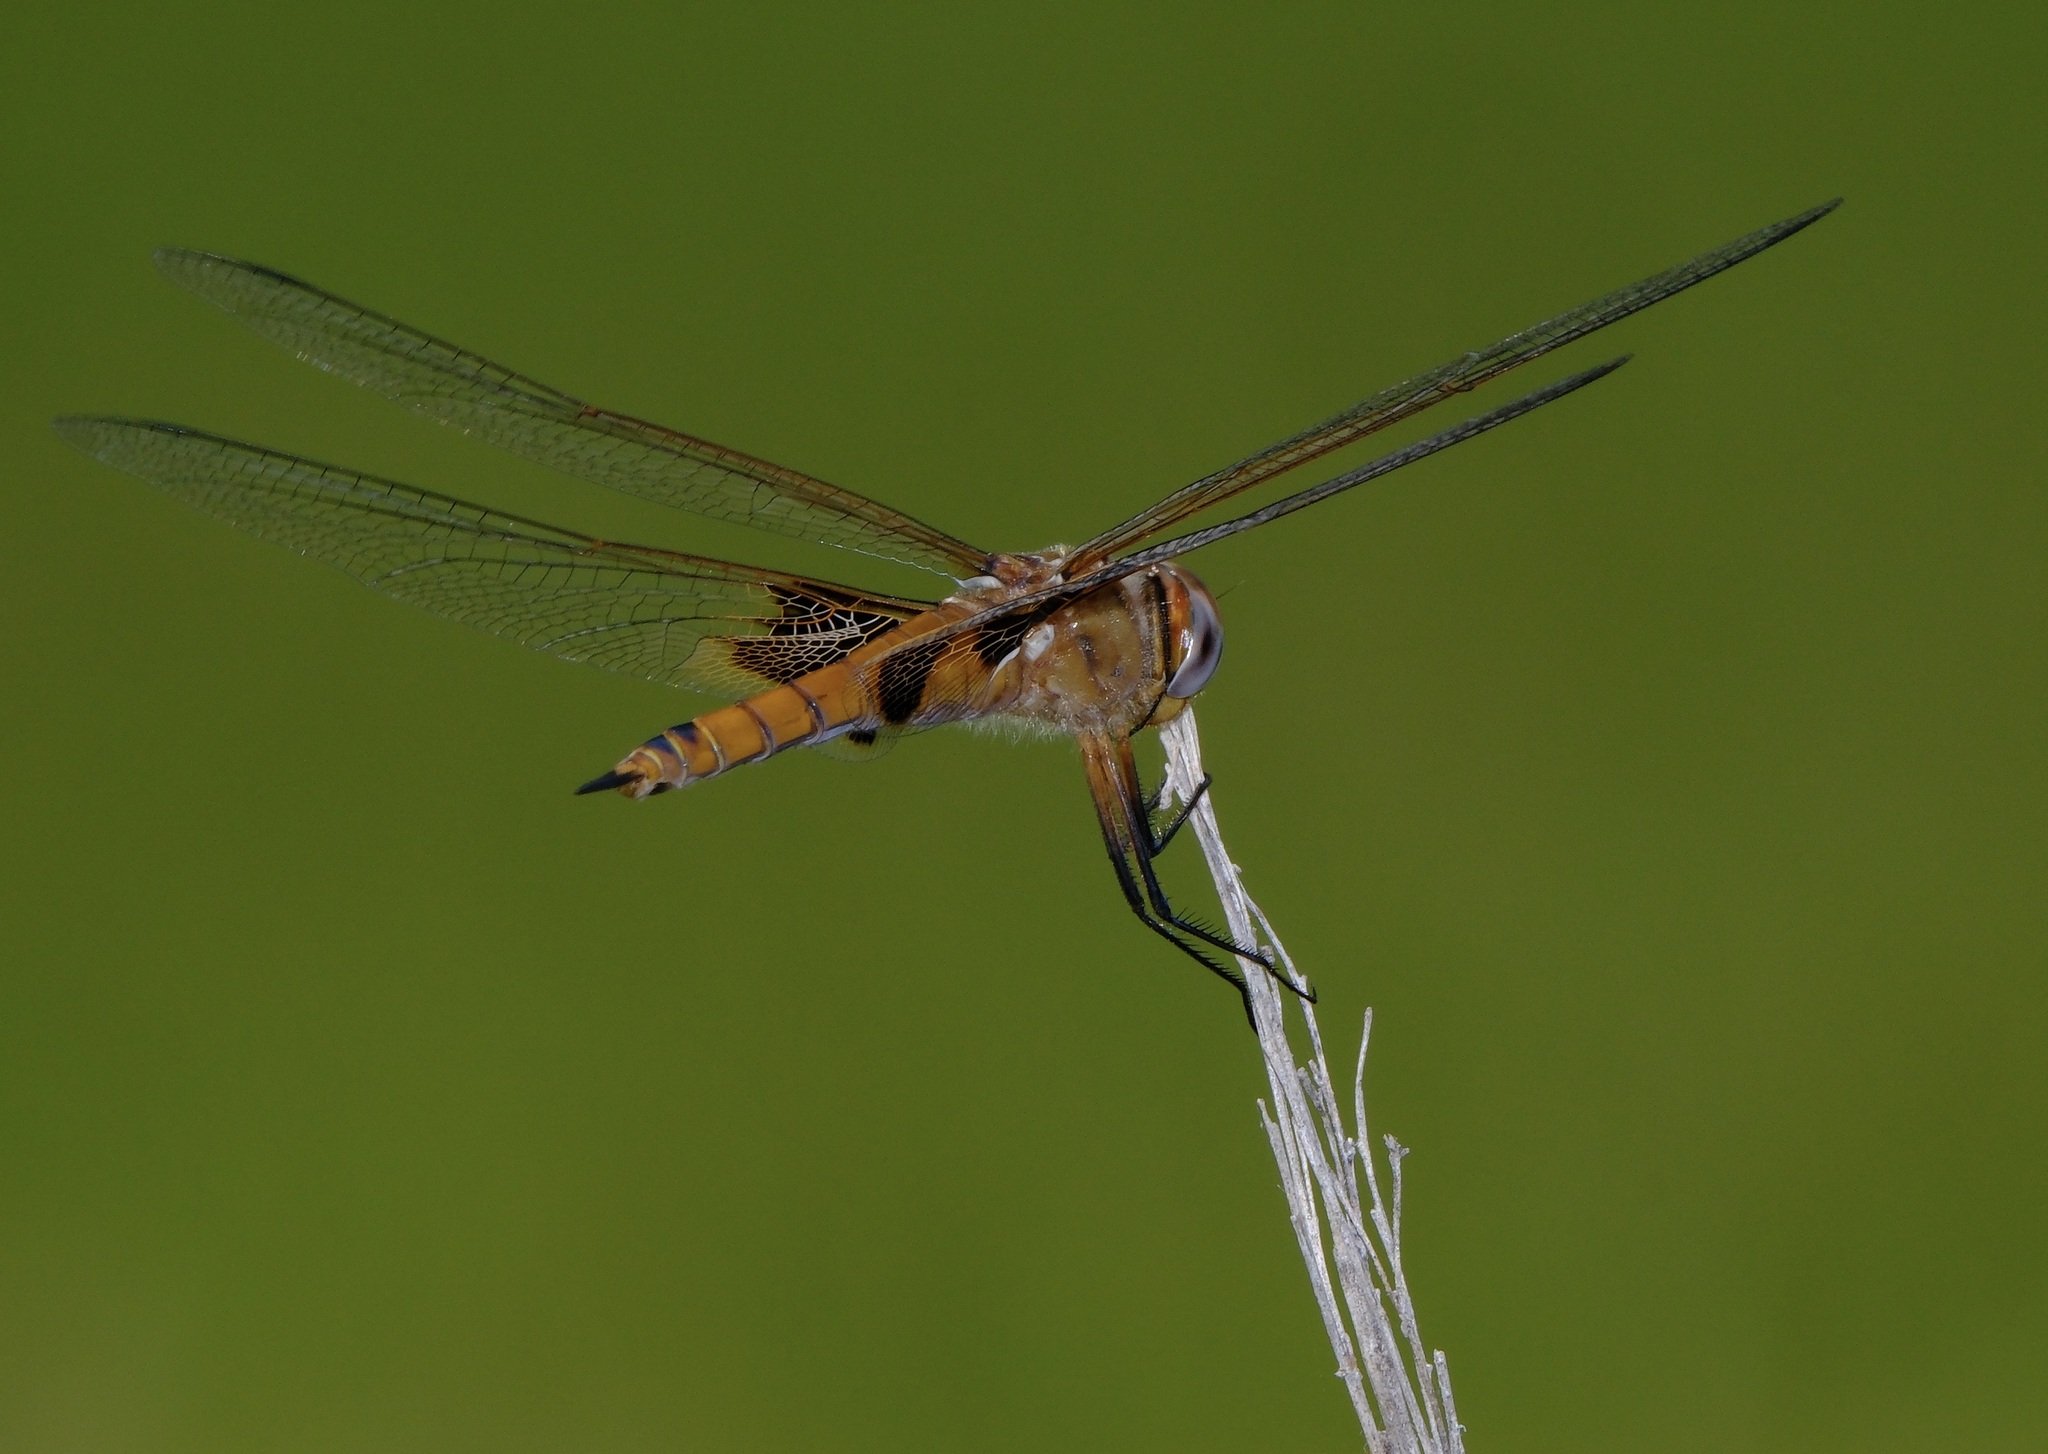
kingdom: Animalia
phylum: Arthropoda
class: Insecta
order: Odonata
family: Libellulidae
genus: Tramea
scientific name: Tramea onusta
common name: Red saddlebags
